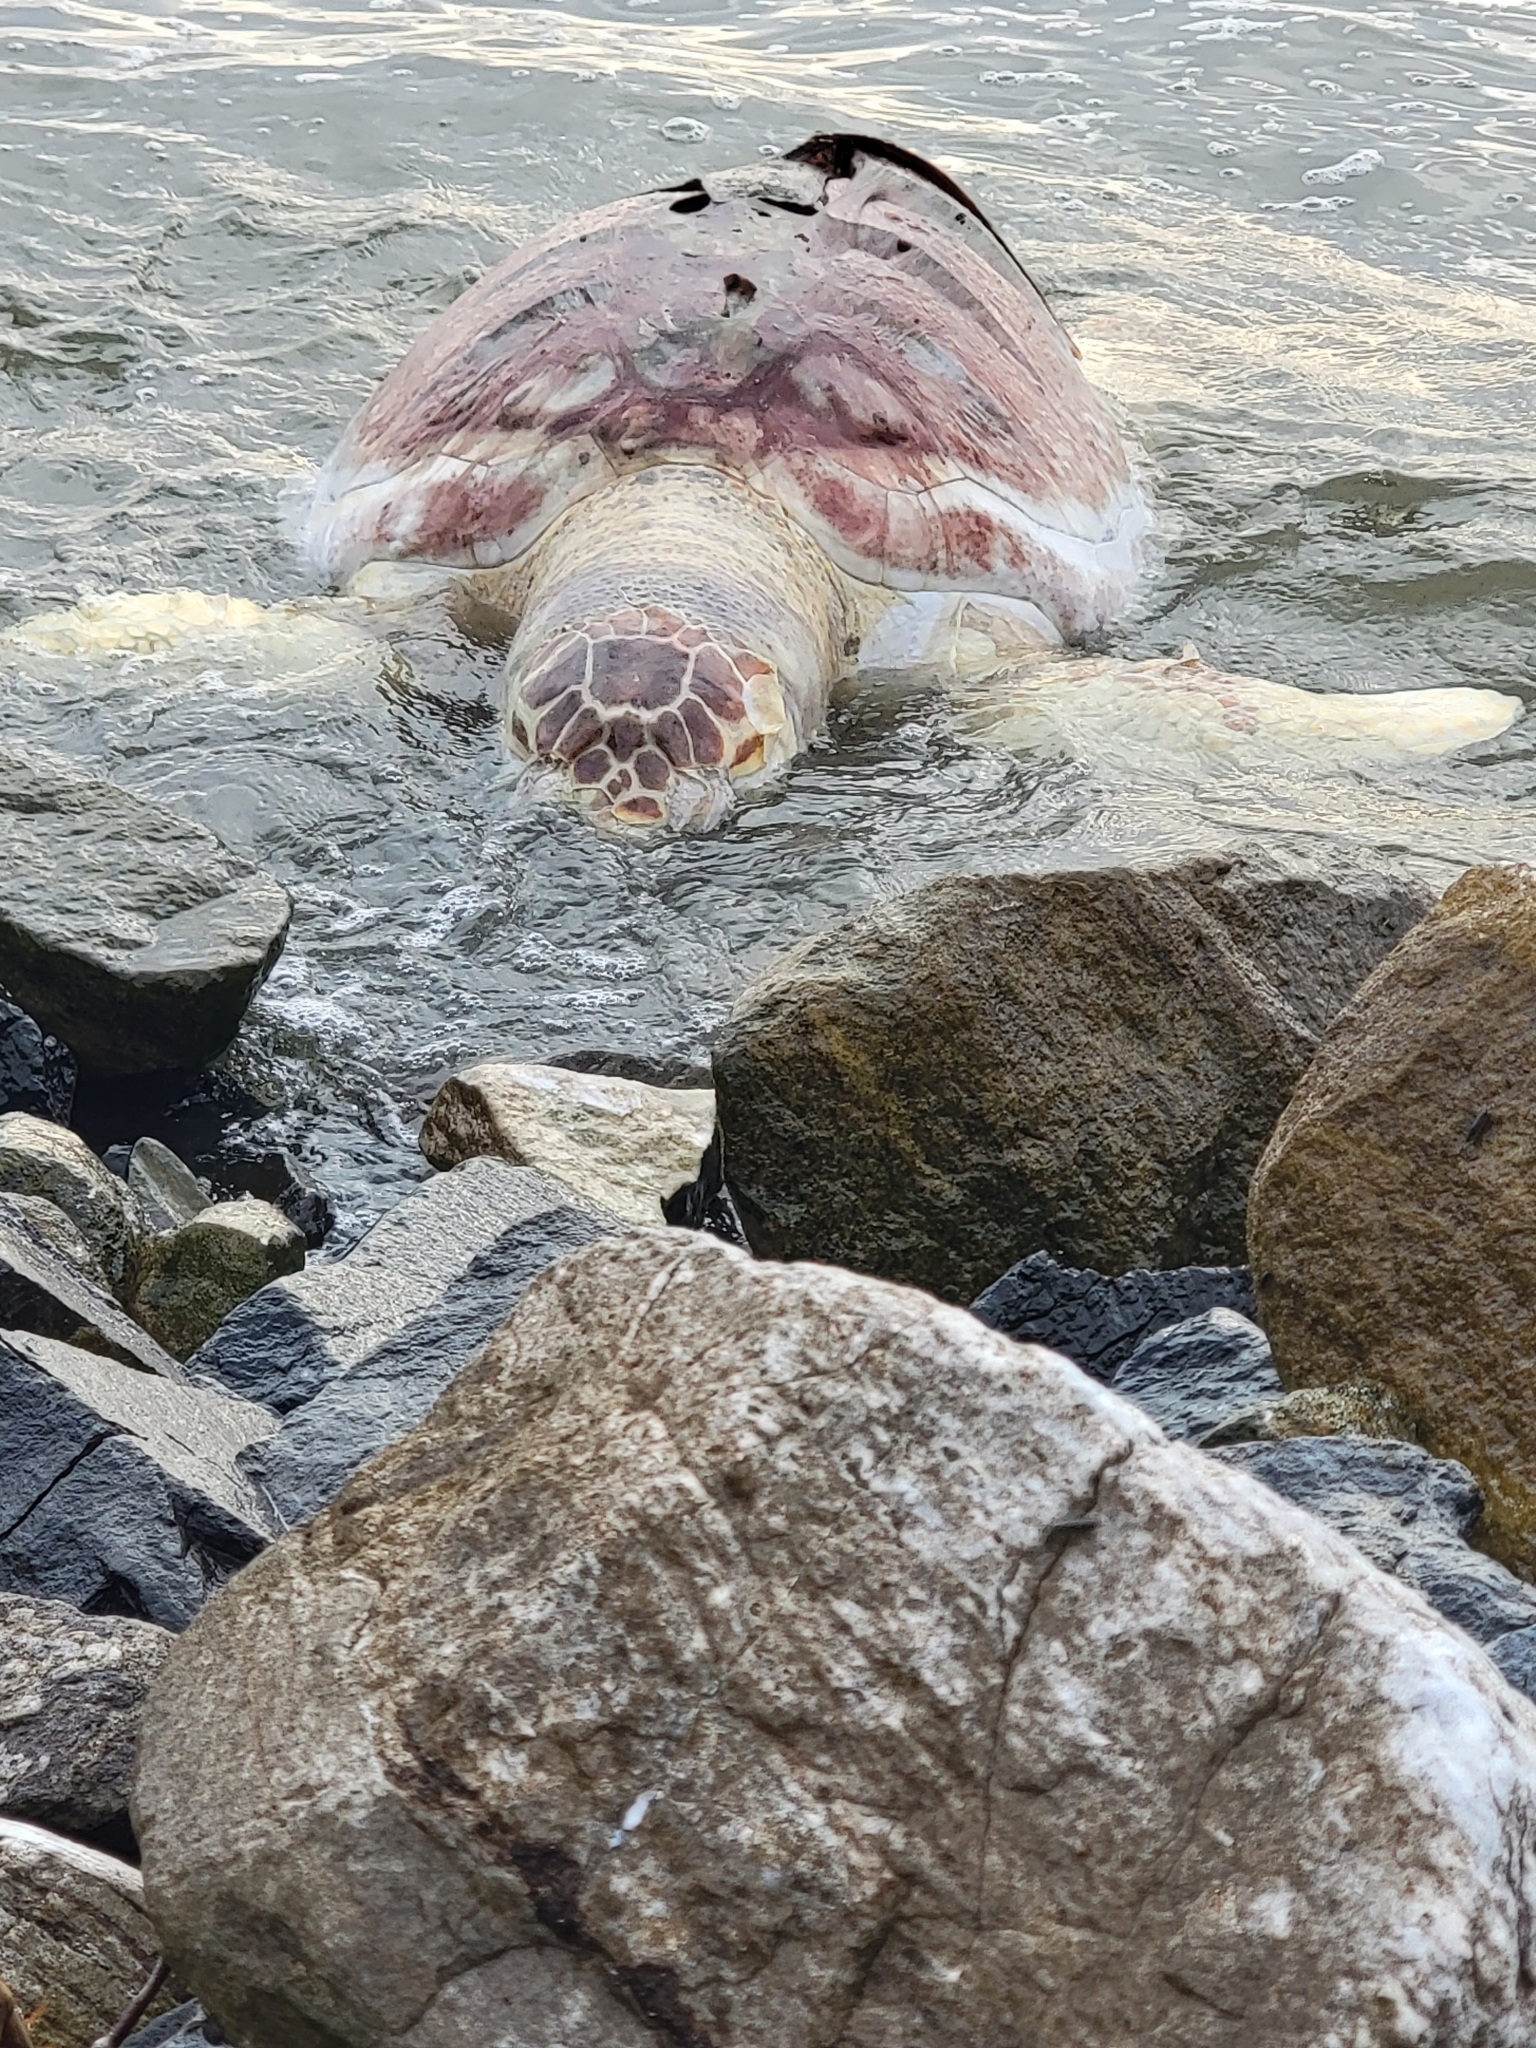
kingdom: Animalia
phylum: Chordata
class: Testudines
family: Cheloniidae
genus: Caretta
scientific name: Caretta caretta
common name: Loggerhead sea turtle
